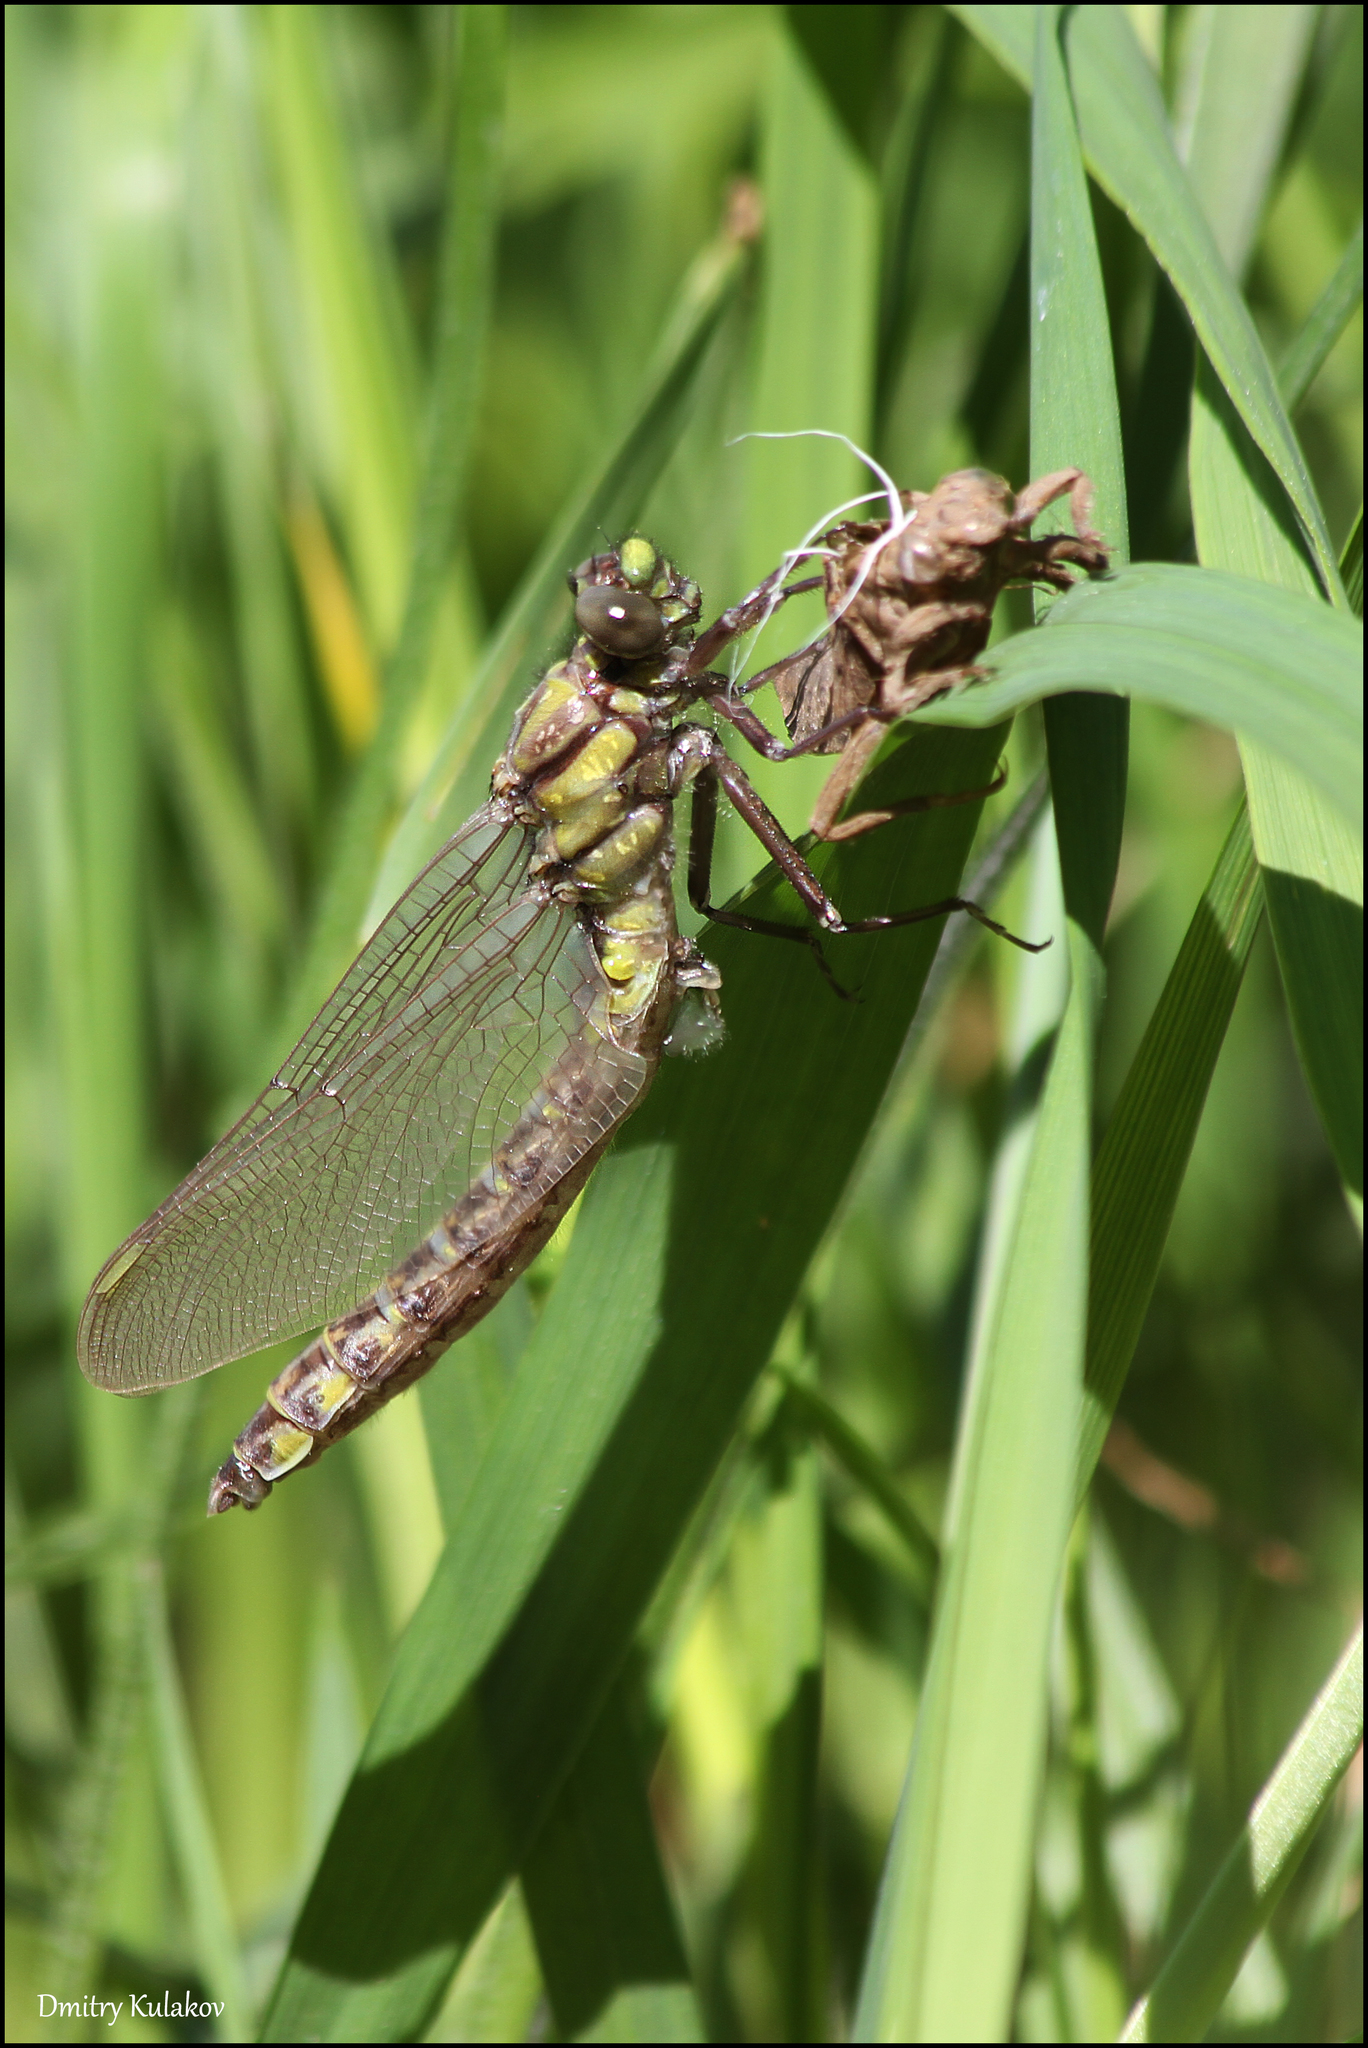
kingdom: Animalia
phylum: Arthropoda
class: Insecta
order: Odonata
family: Gomphidae
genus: Gomphus
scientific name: Gomphus vulgatissimus
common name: Club-tailed dragonfly
